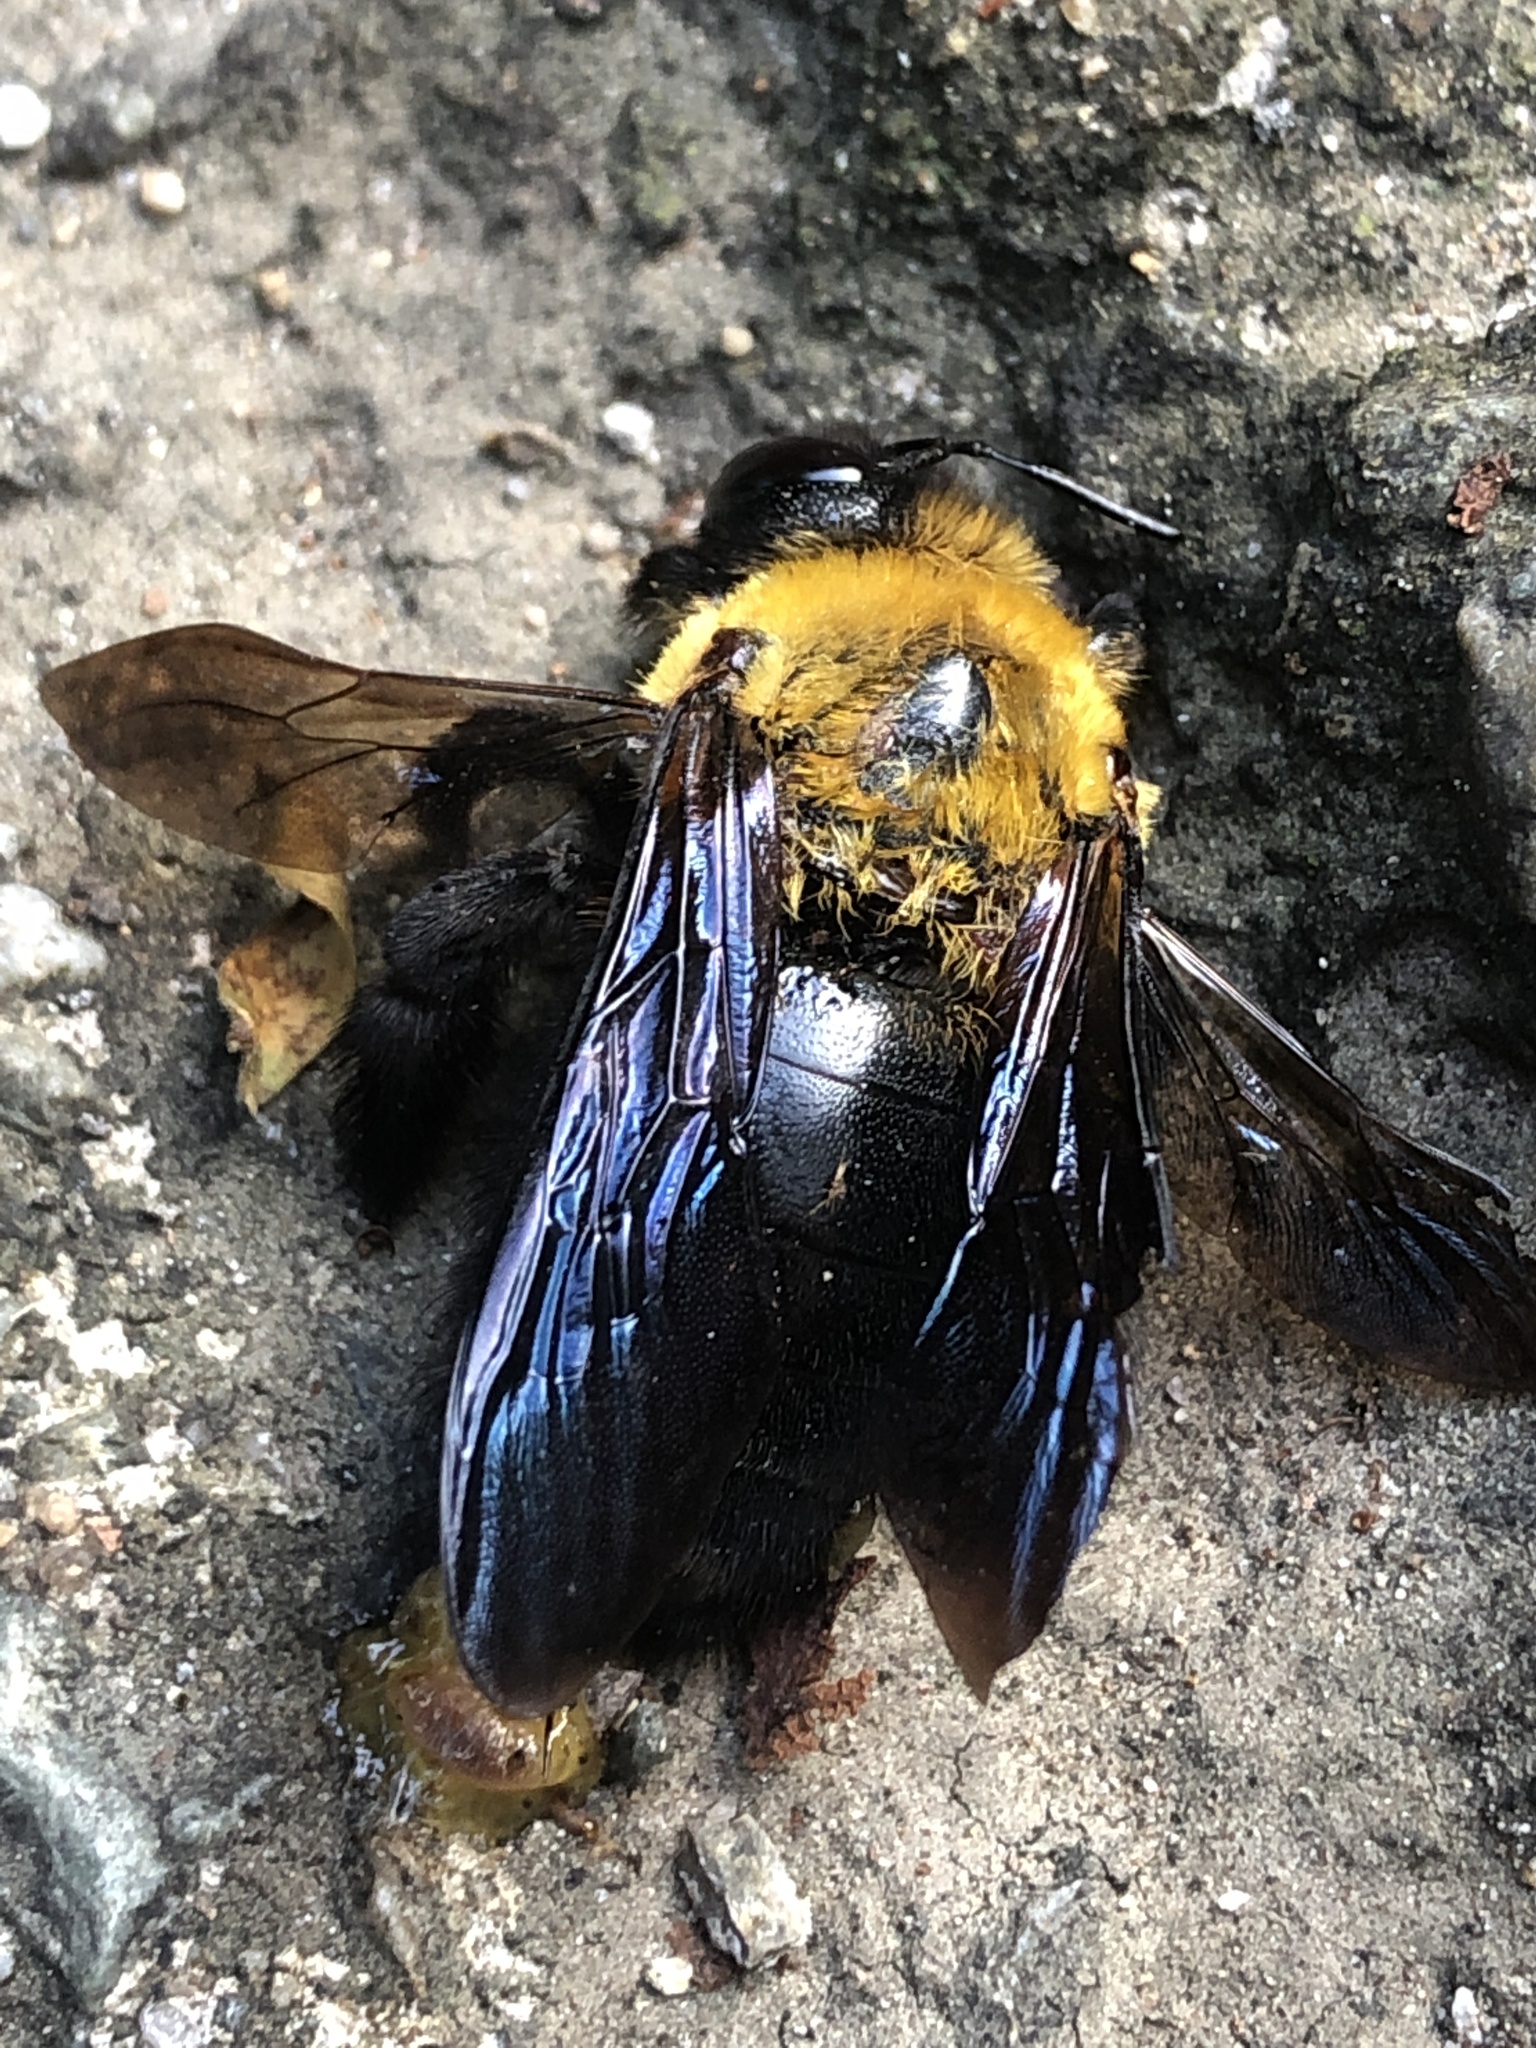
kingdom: Animalia
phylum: Arthropoda
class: Insecta
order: Hymenoptera
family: Apidae
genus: Xylocopa
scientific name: Xylocopa appendiculata
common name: Japanese carpenter bee
